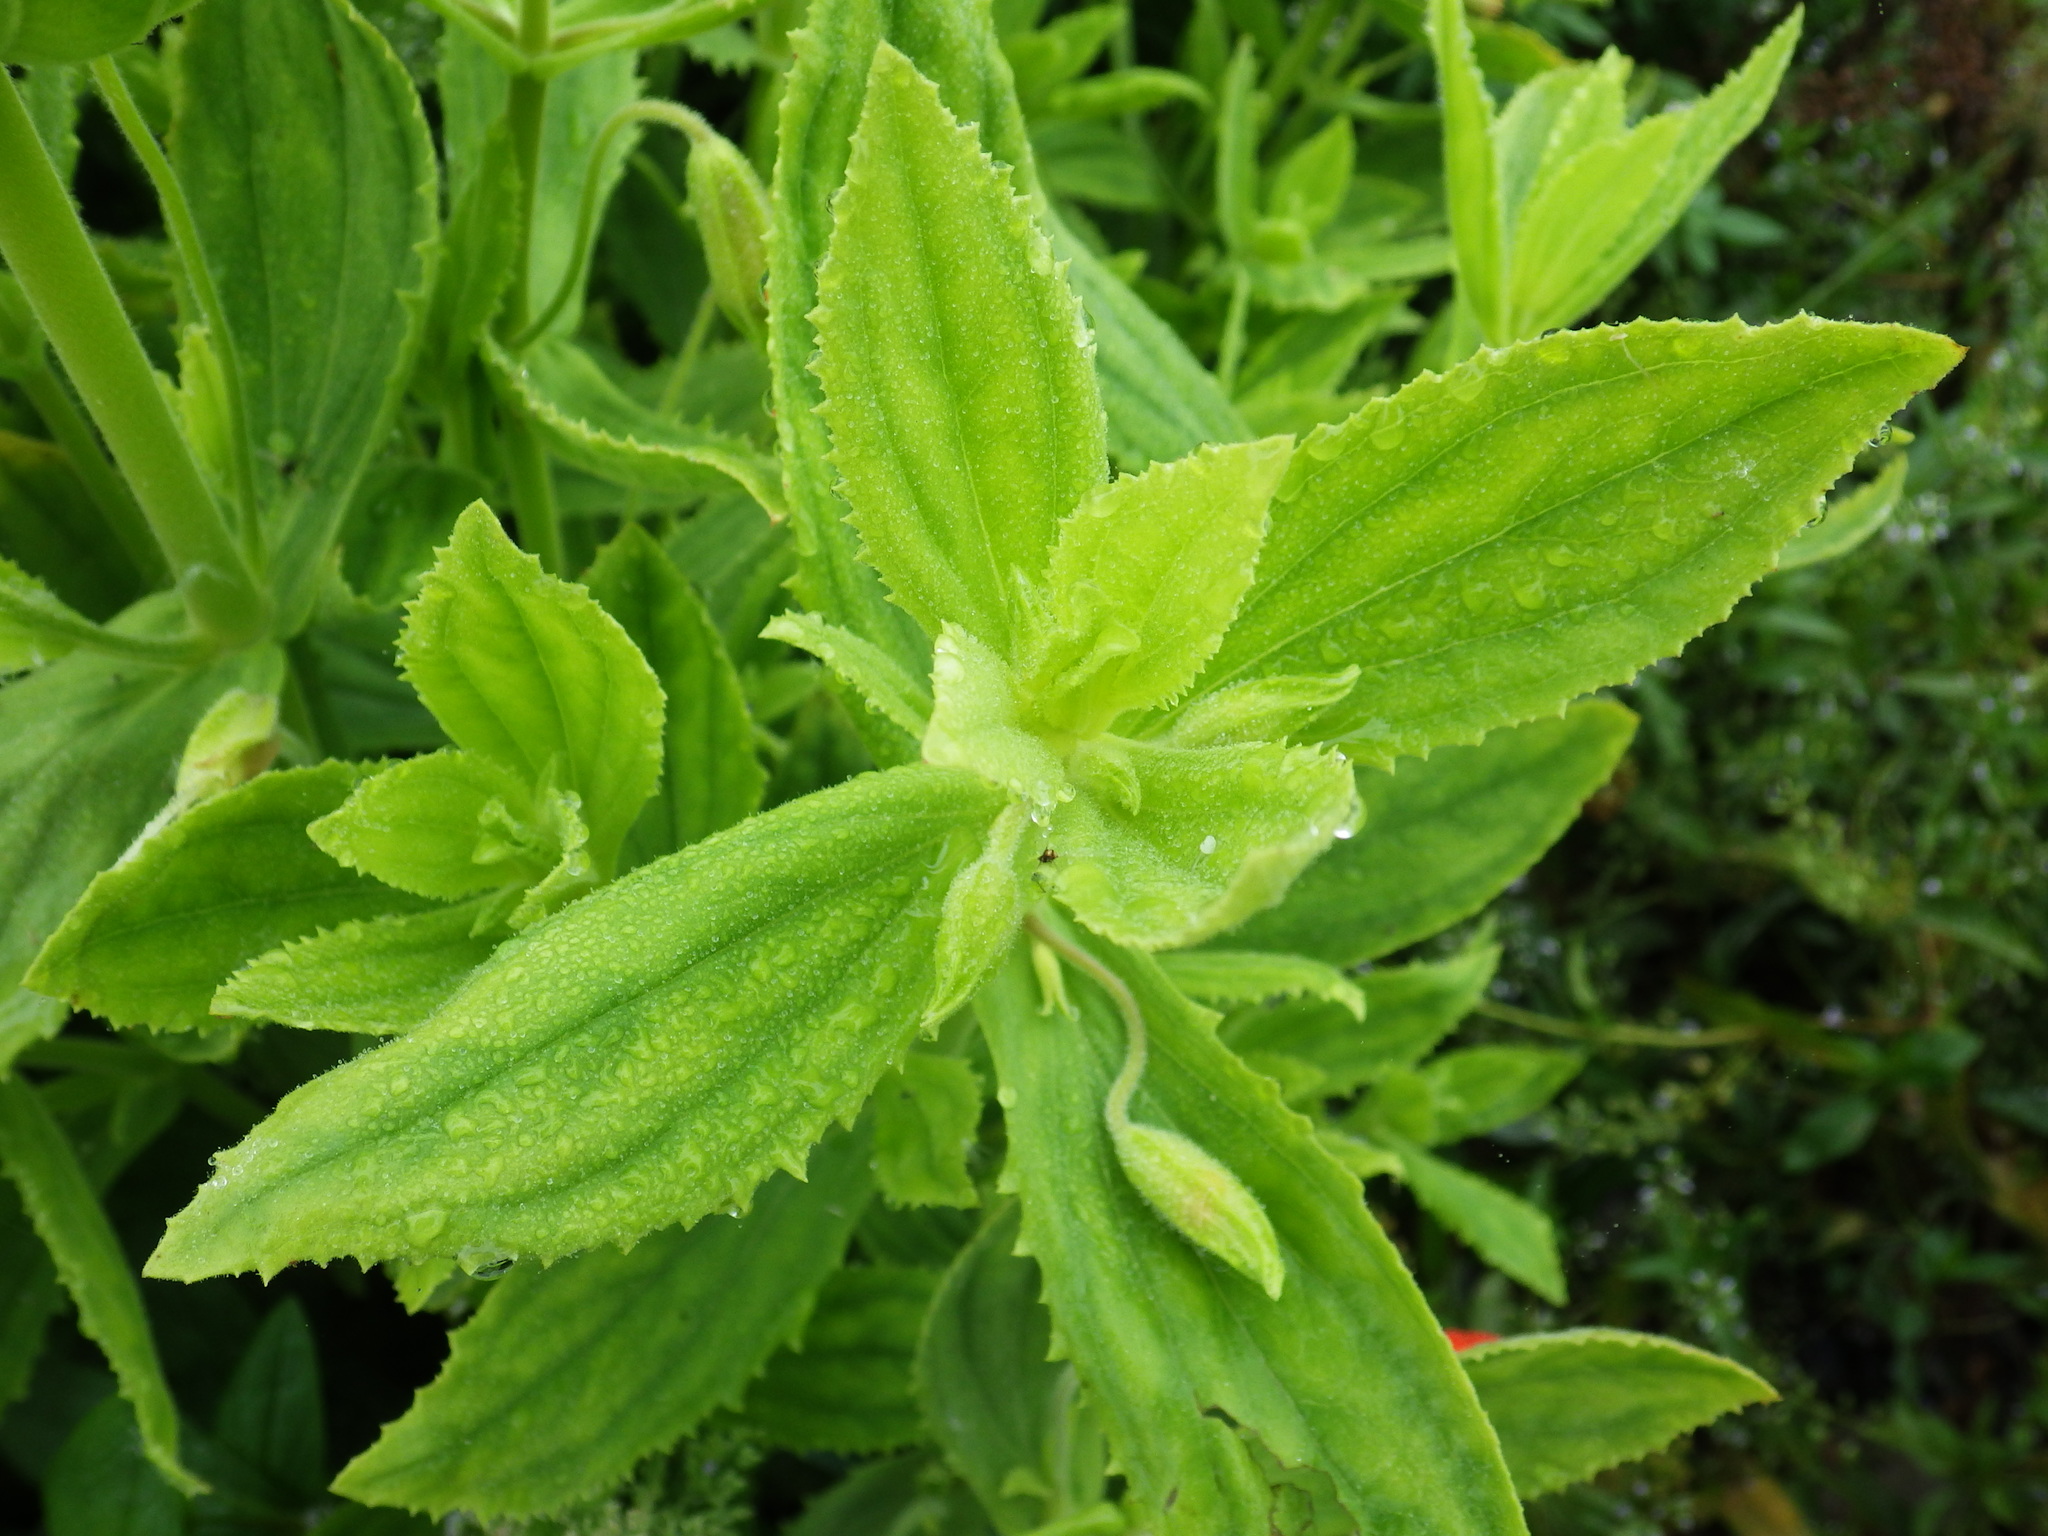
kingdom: Plantae
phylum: Tracheophyta
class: Magnoliopsida
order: Lamiales
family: Phrymaceae
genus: Erythranthe
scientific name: Erythranthe cardinalis
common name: Scarlet monkey-flower
